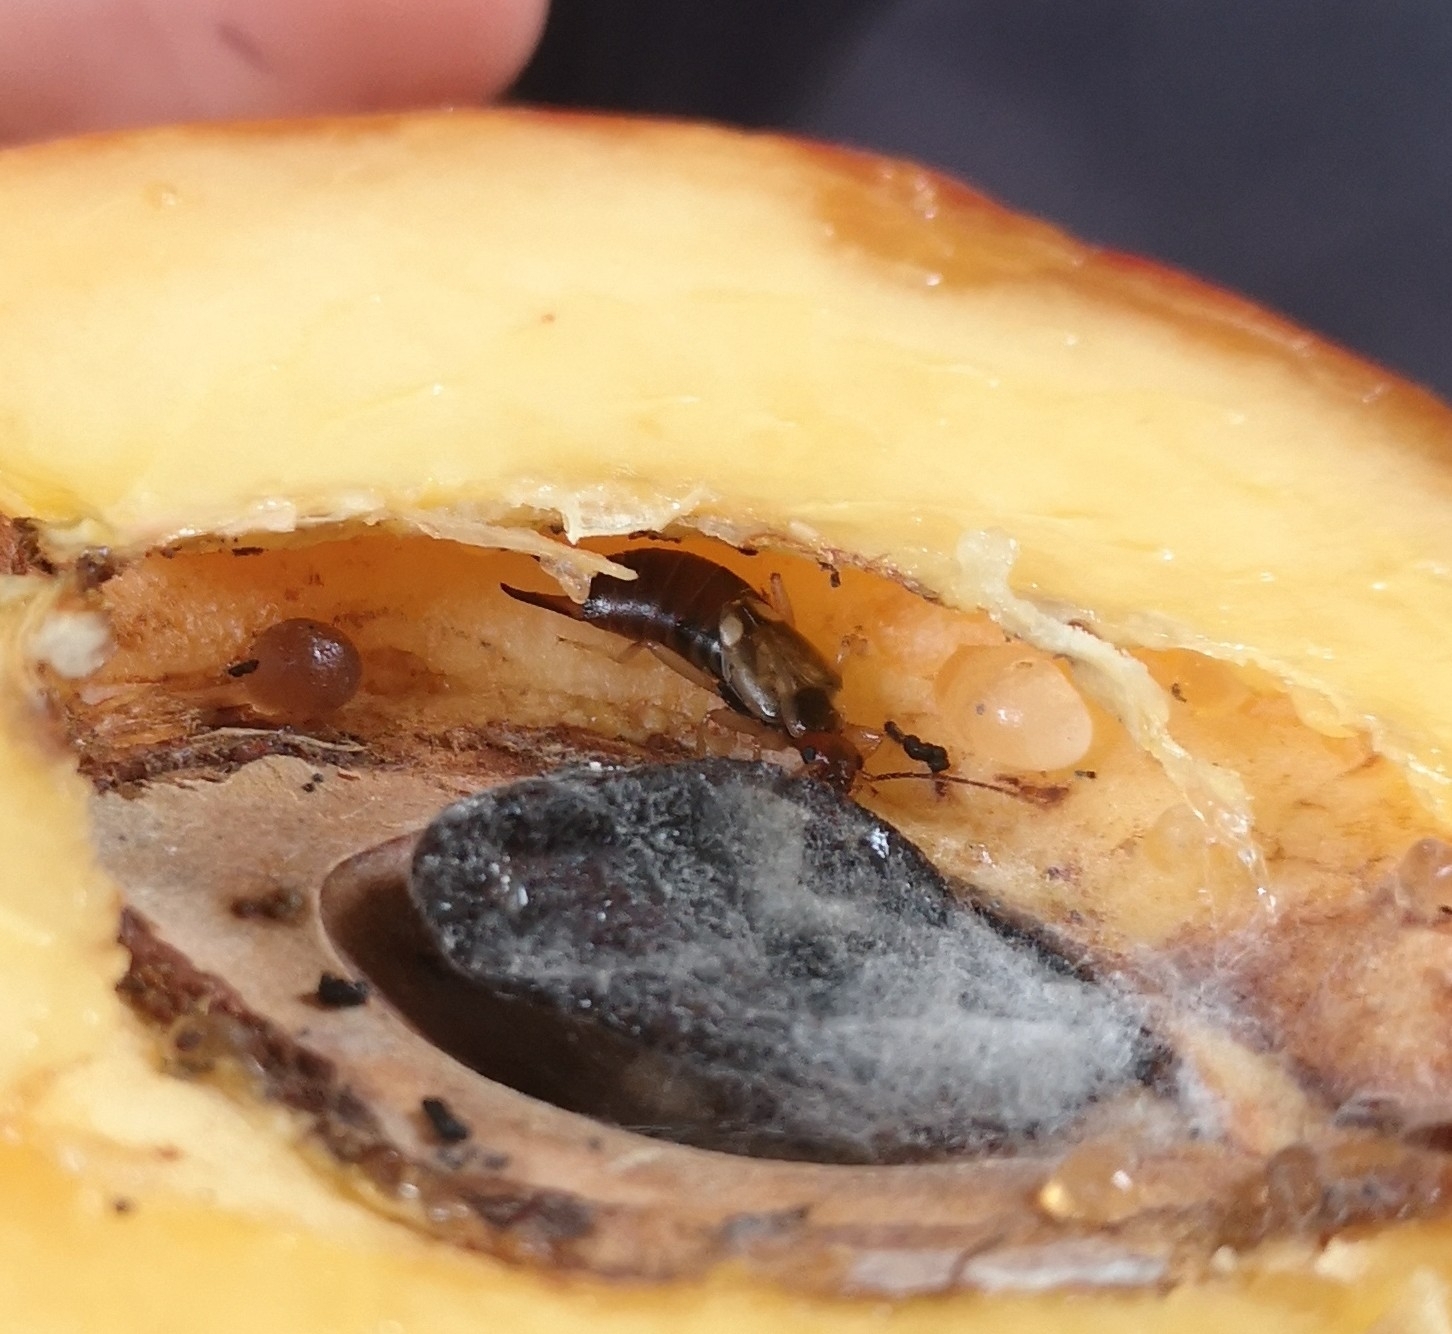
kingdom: Animalia
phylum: Arthropoda
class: Insecta
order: Dermaptera
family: Forficulidae
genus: Forficula
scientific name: Forficula
